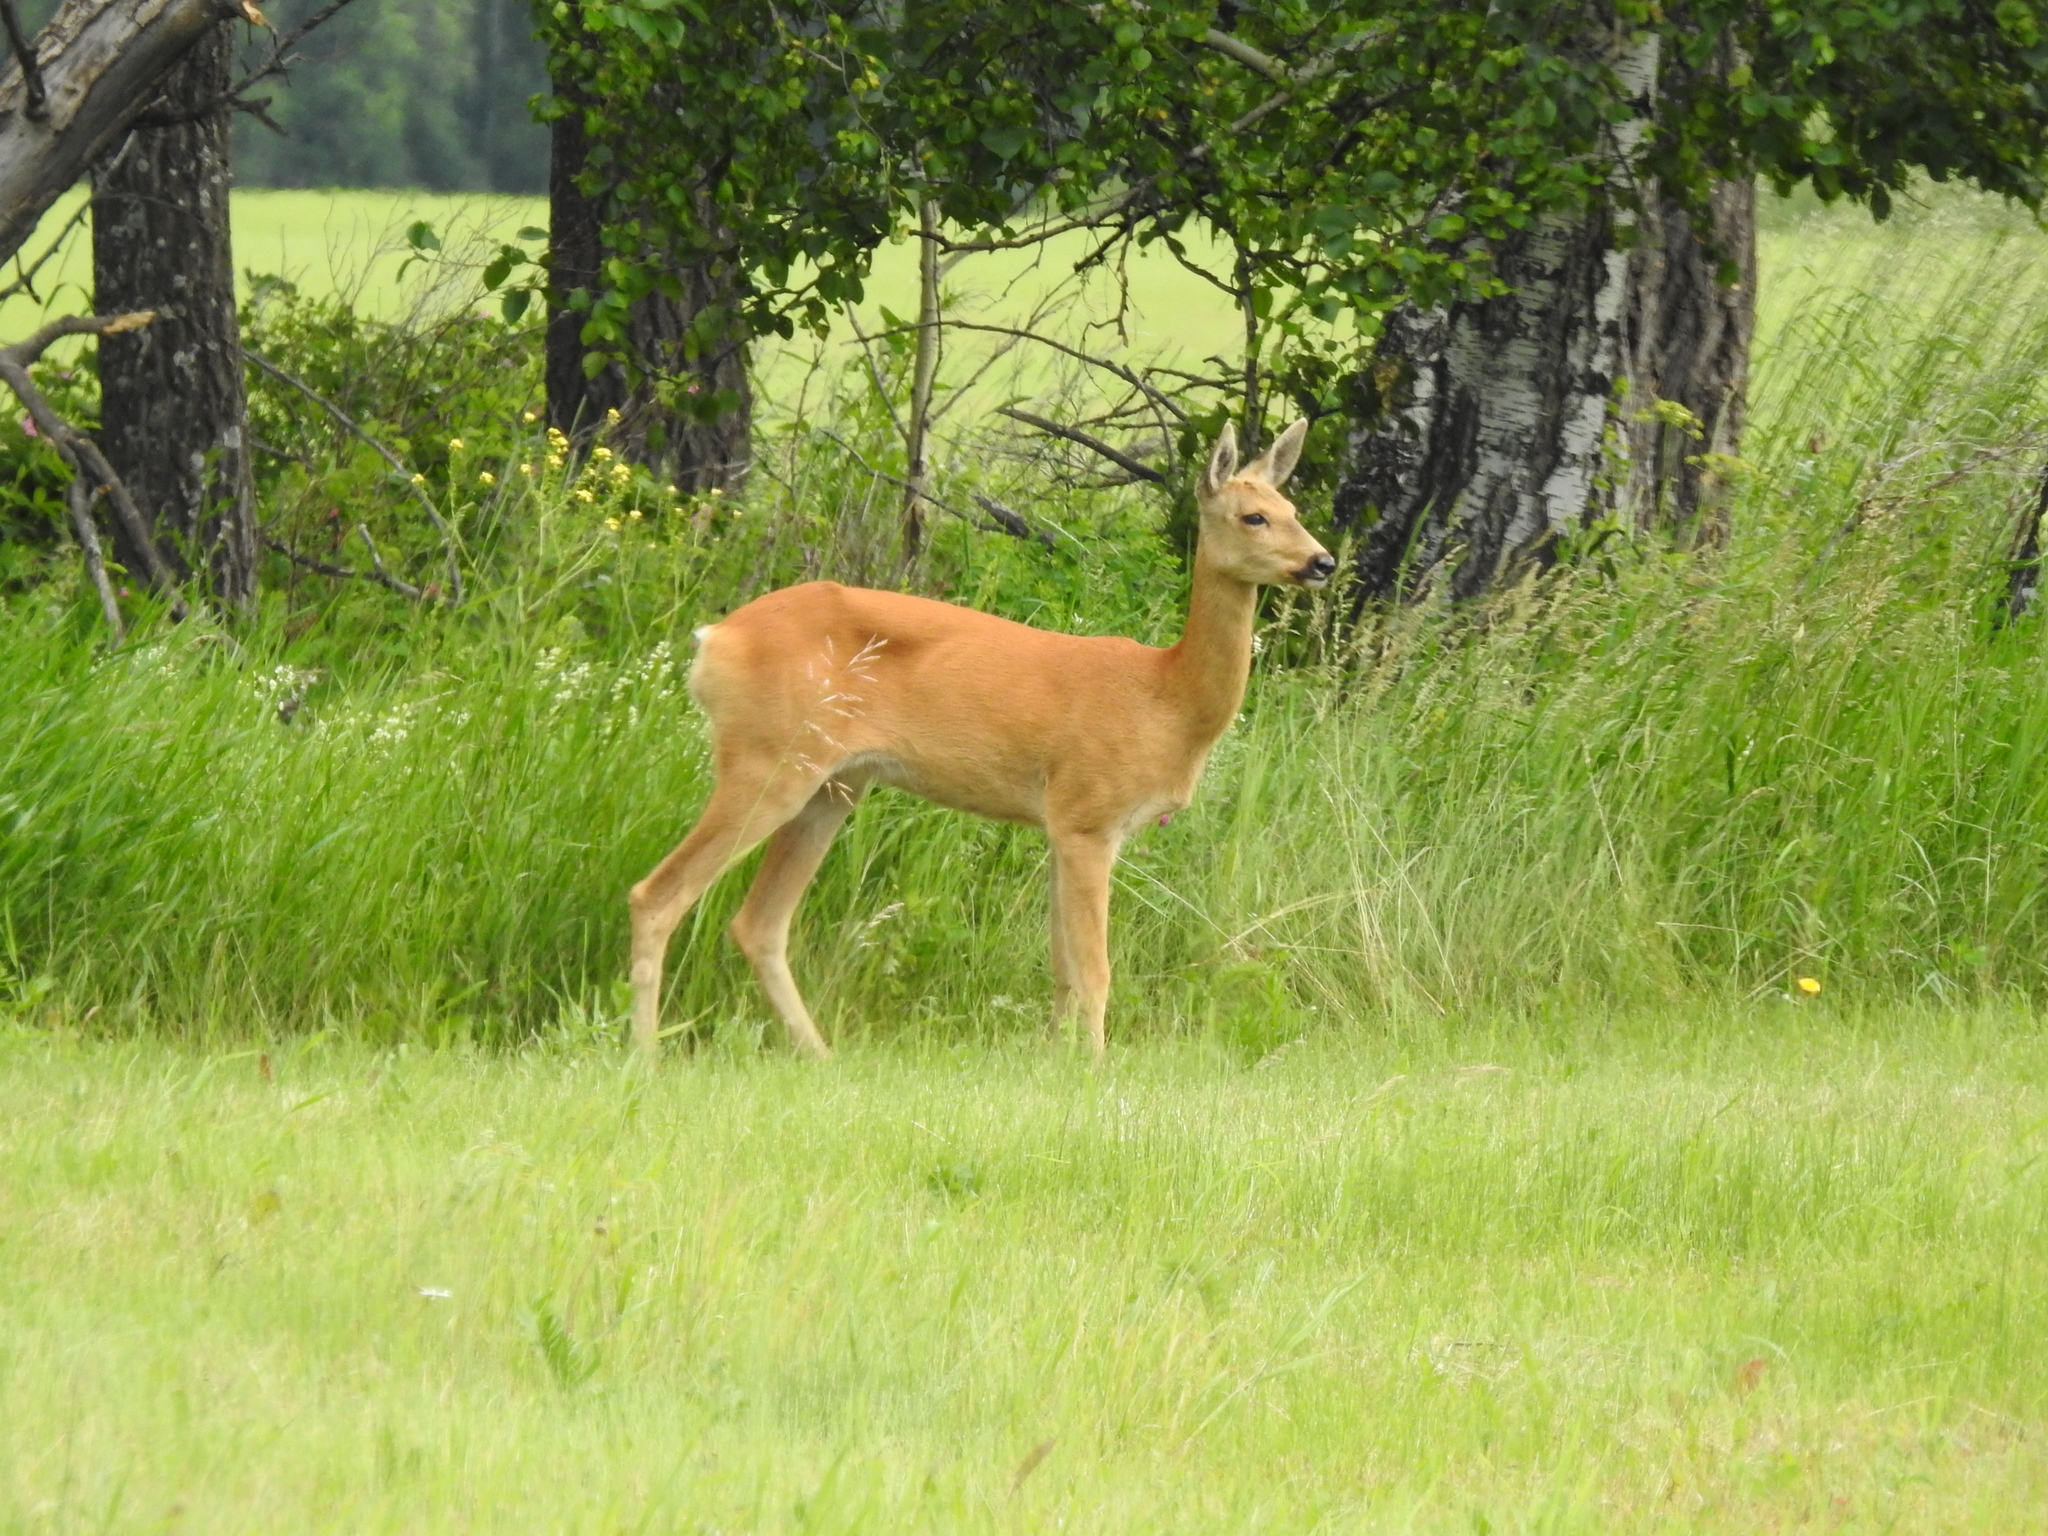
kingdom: Animalia
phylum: Chordata
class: Mammalia
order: Artiodactyla
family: Cervidae
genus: Capreolus
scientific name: Capreolus pygargus
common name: Siberian roe
